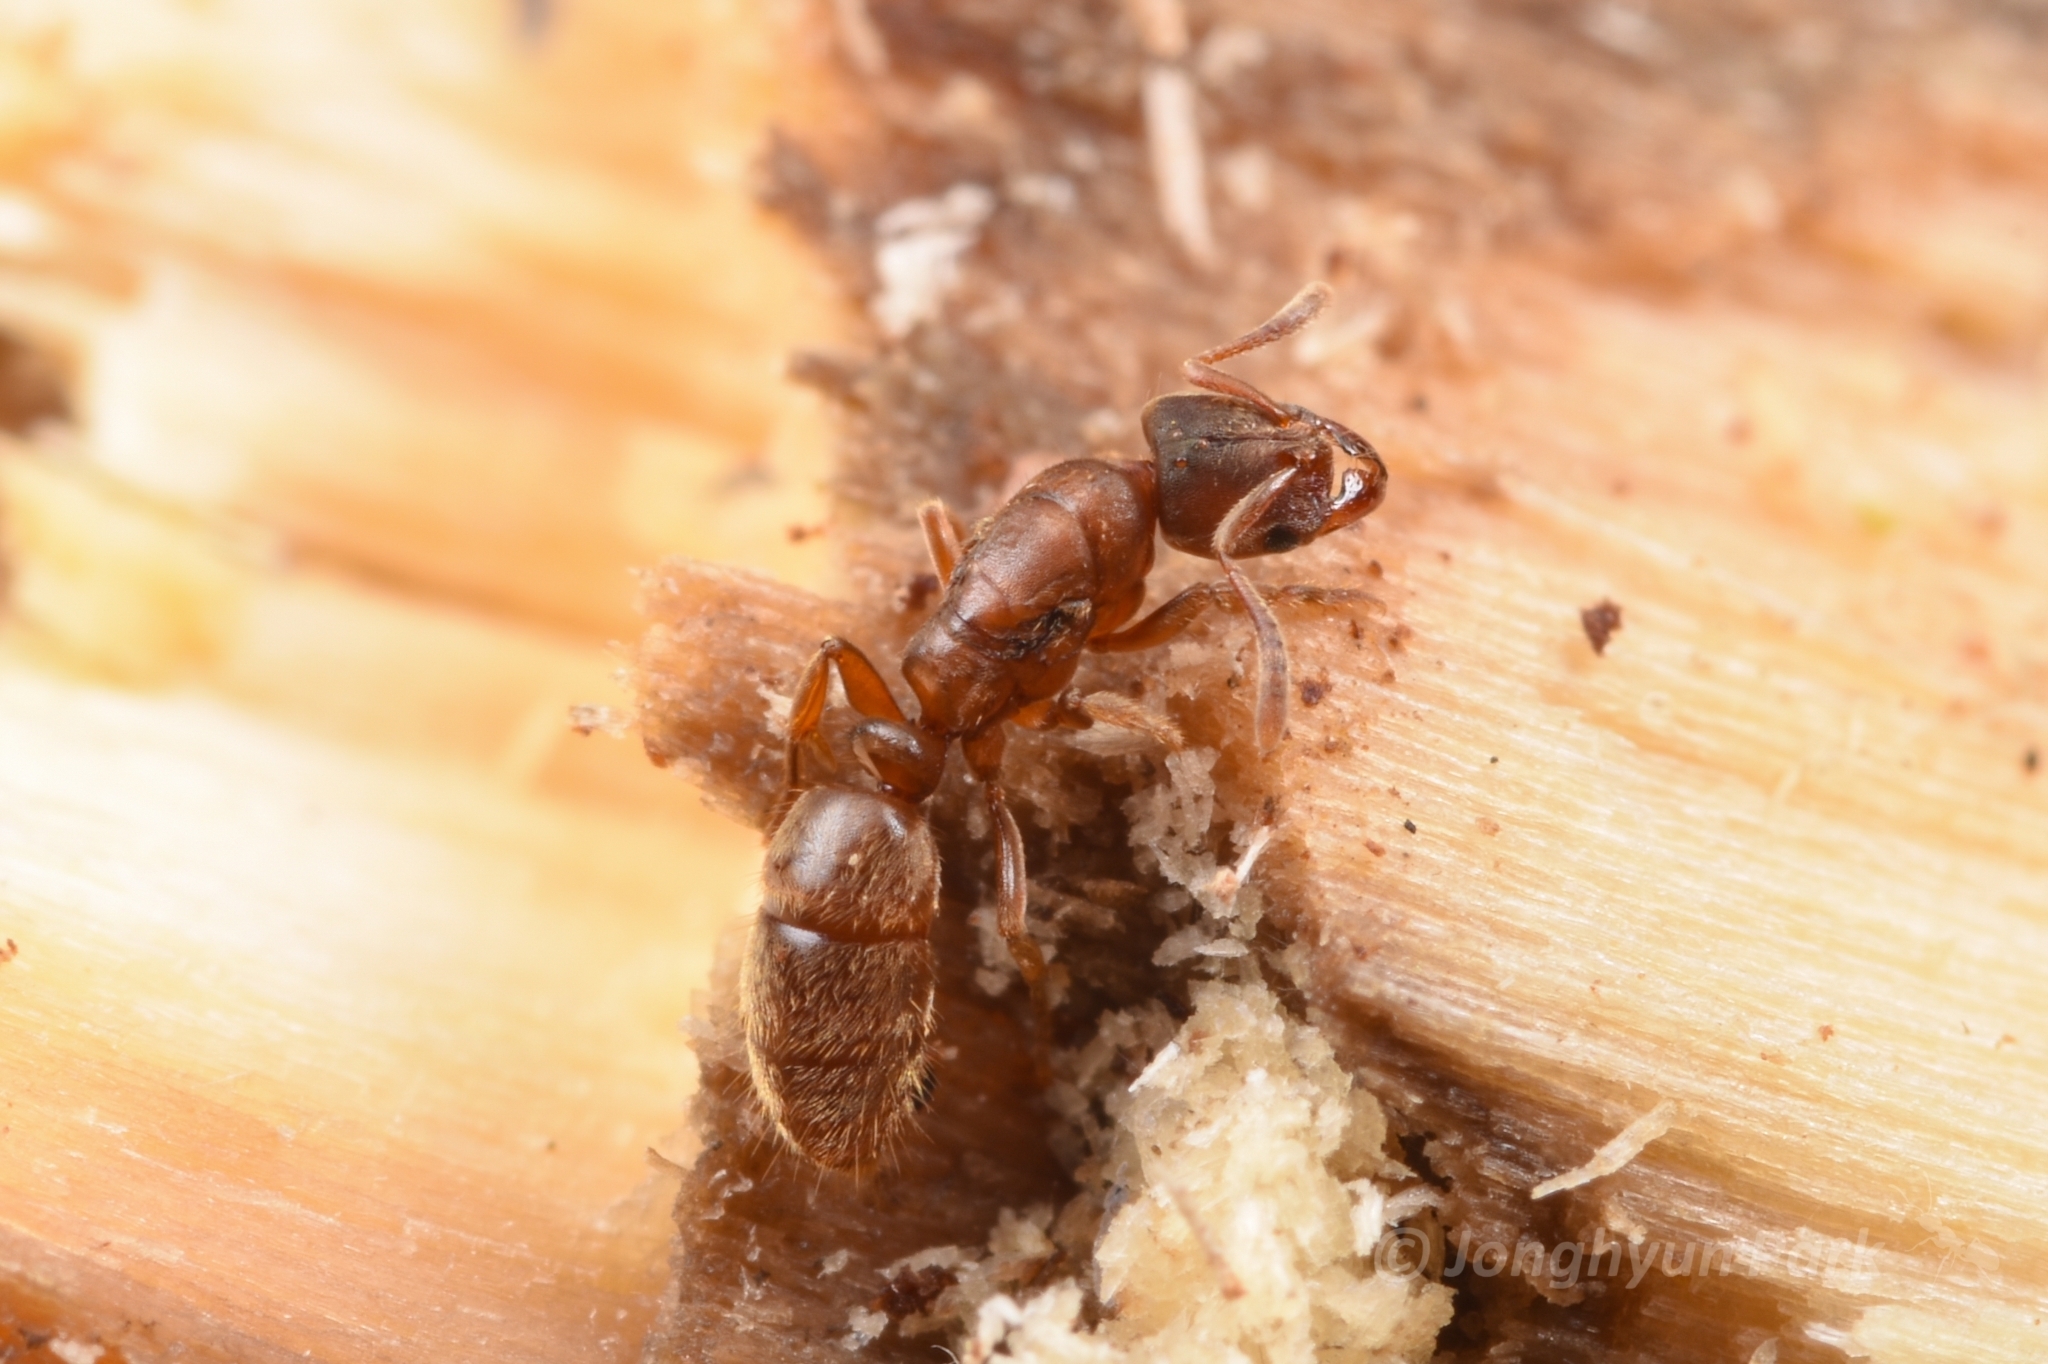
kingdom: Animalia
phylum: Arthropoda
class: Insecta
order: Hymenoptera
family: Formicidae
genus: Cryptopone
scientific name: Cryptopone sauteri
